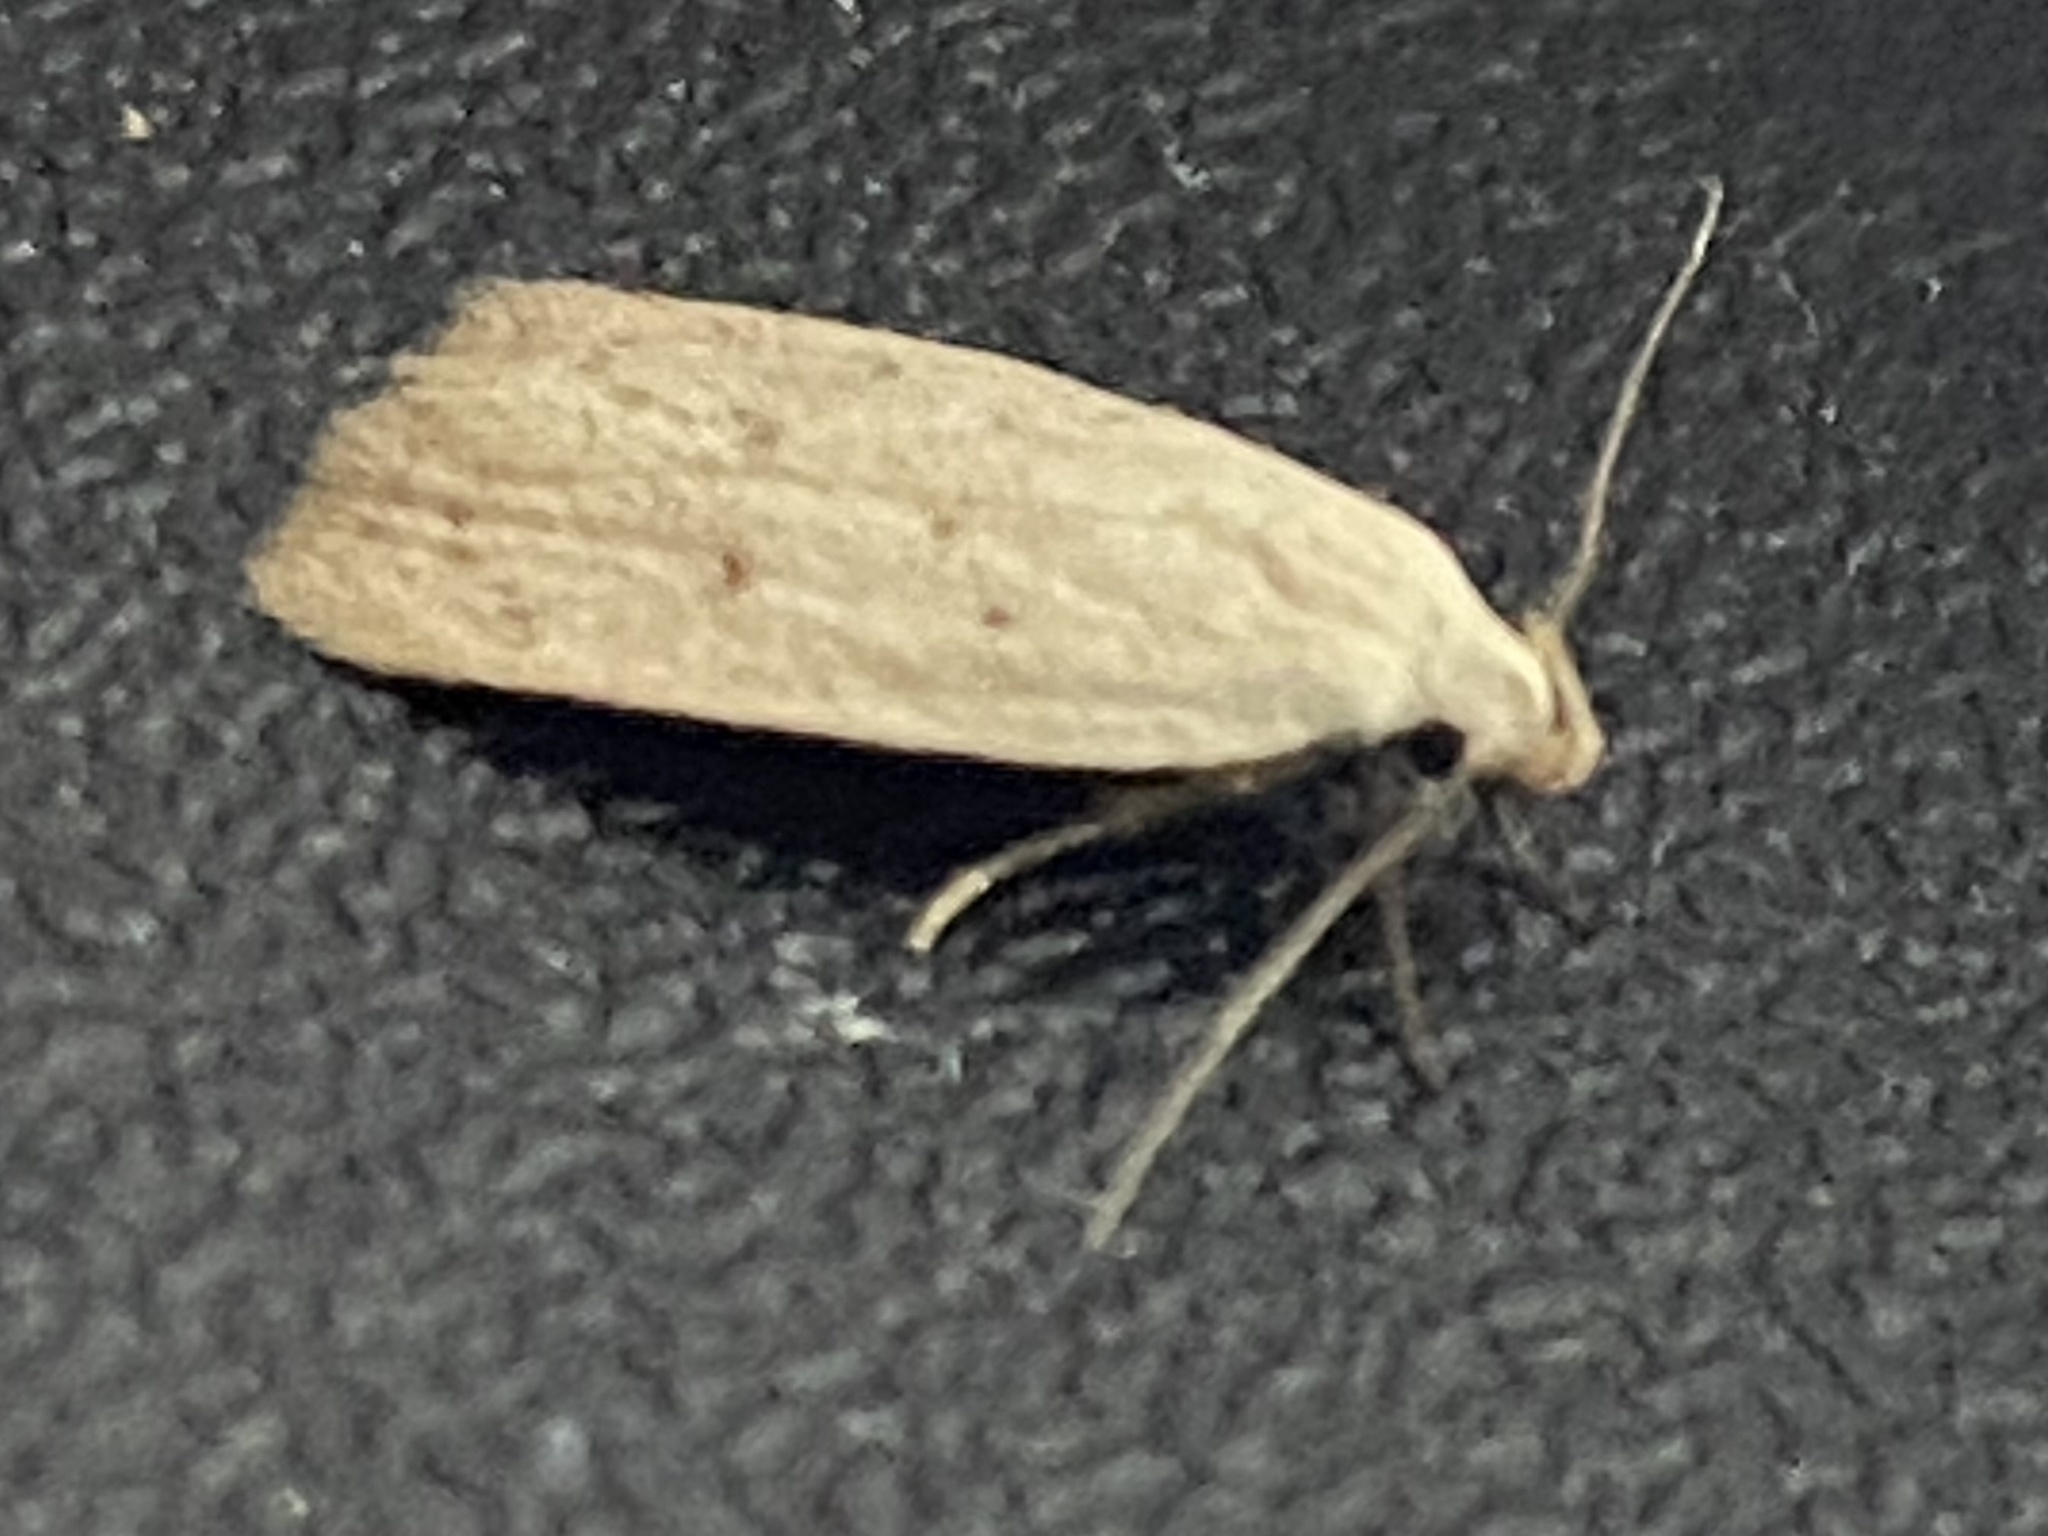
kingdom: Animalia
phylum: Arthropoda
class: Insecta
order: Lepidoptera
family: Tortricidae
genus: Sparganothis
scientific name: Sparganothis distincta
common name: Distinct sparganothis moth
